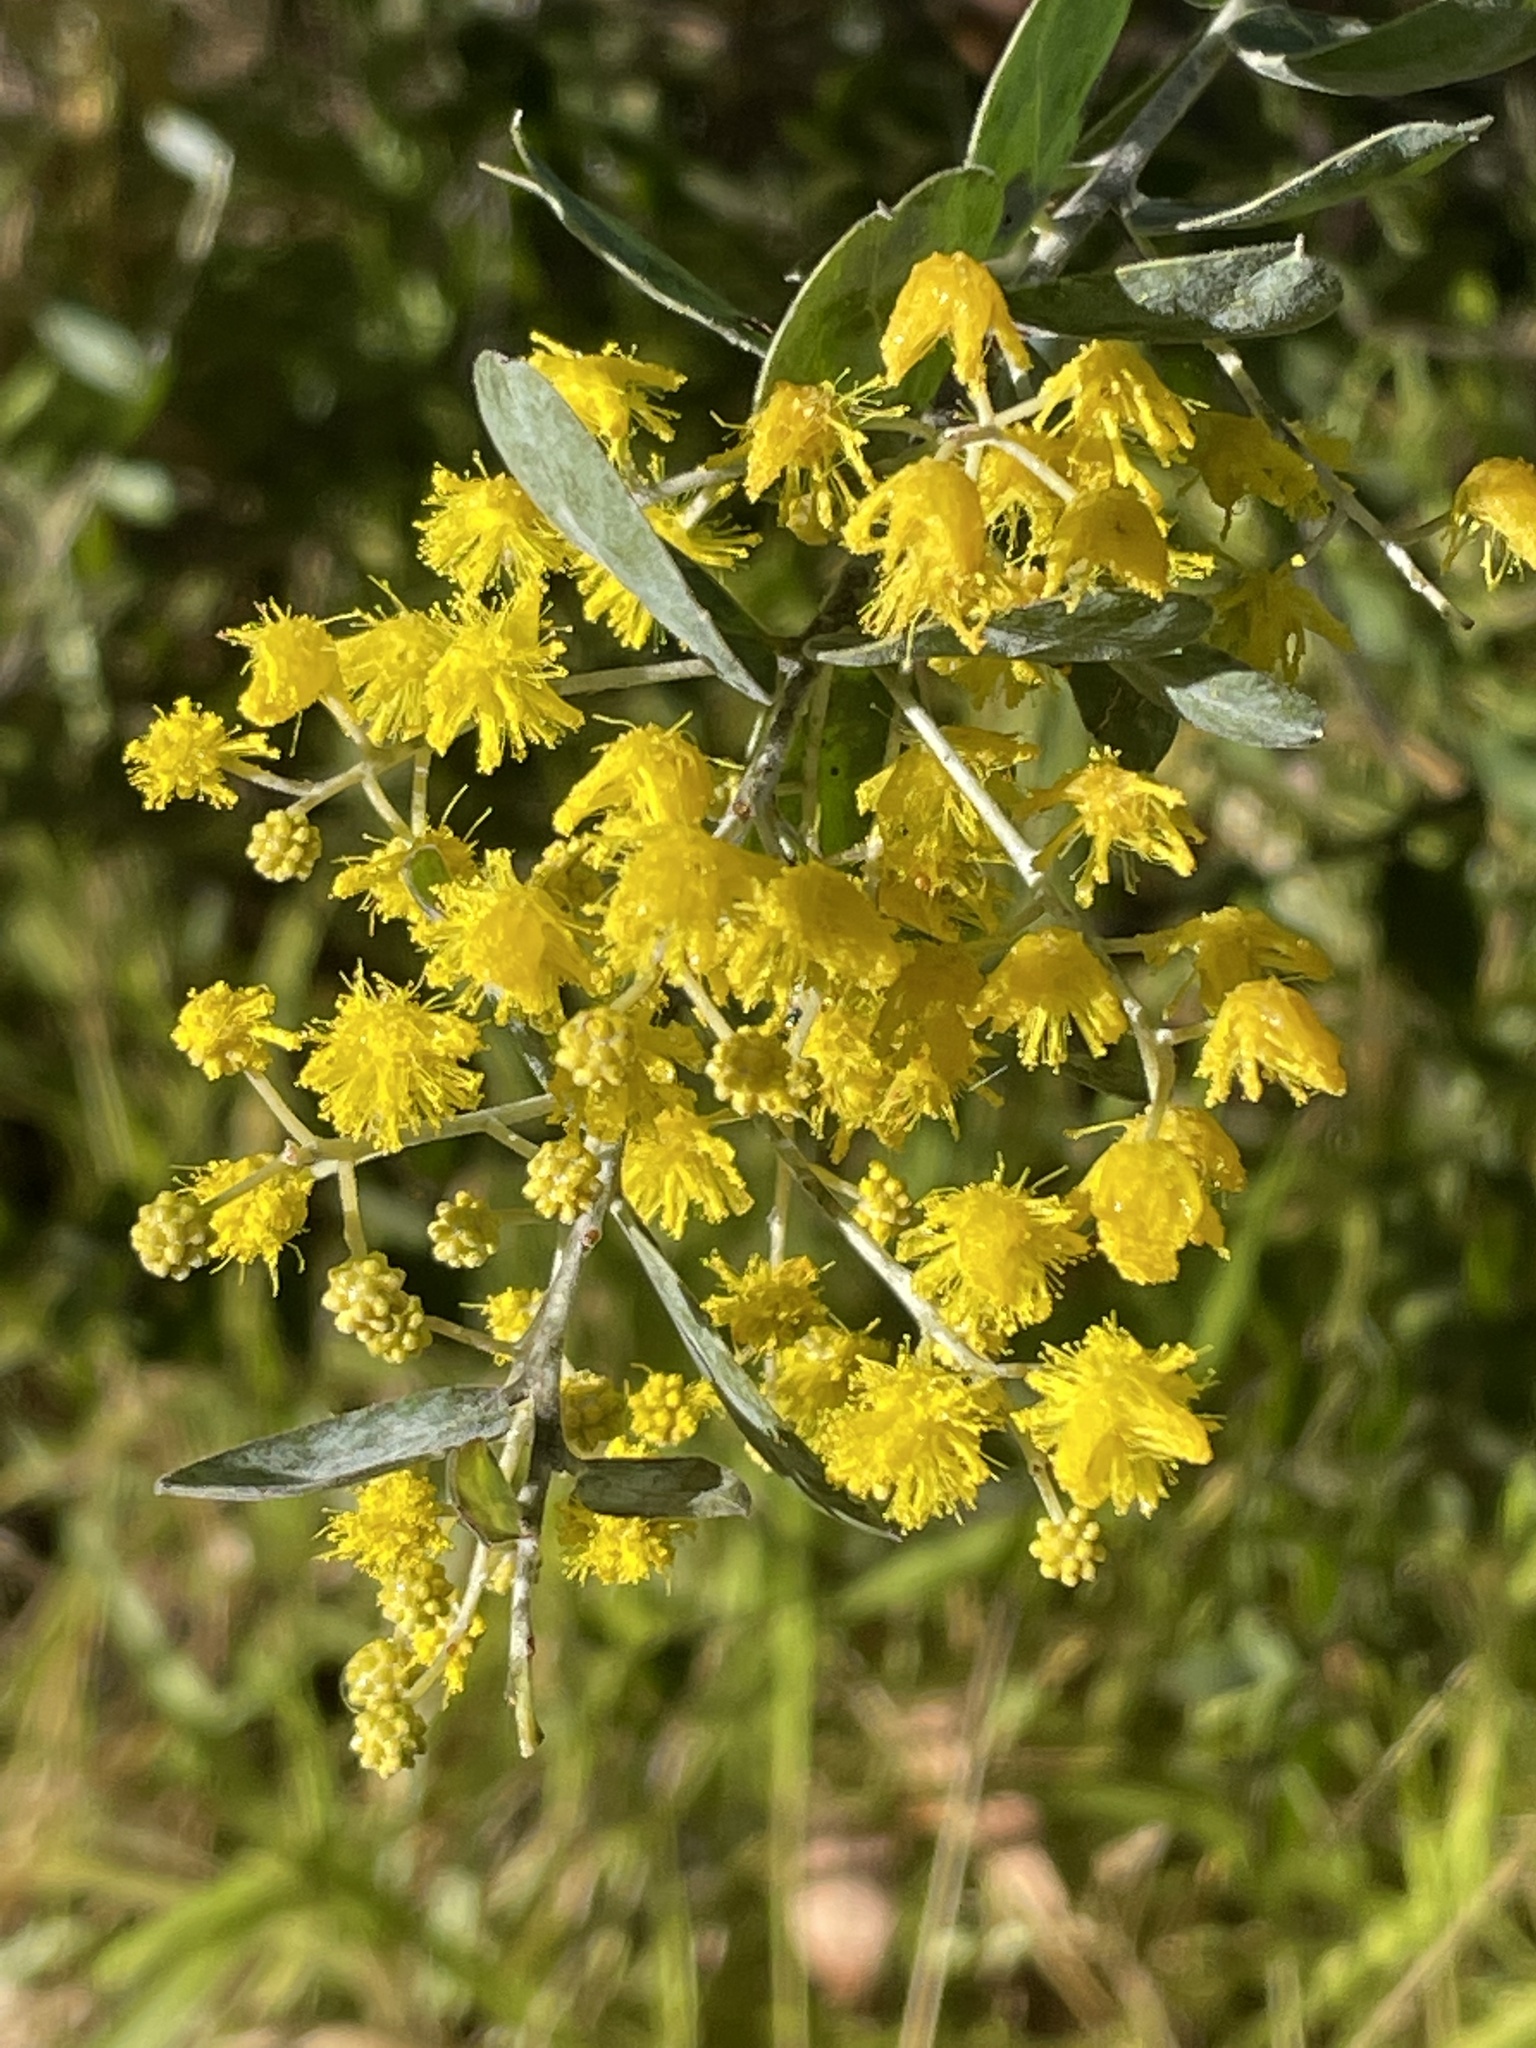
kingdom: Plantae
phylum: Tracheophyta
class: Magnoliopsida
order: Fabales
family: Fabaceae
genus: Acacia
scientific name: Acacia podalyriifolia
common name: Pearl wattle
